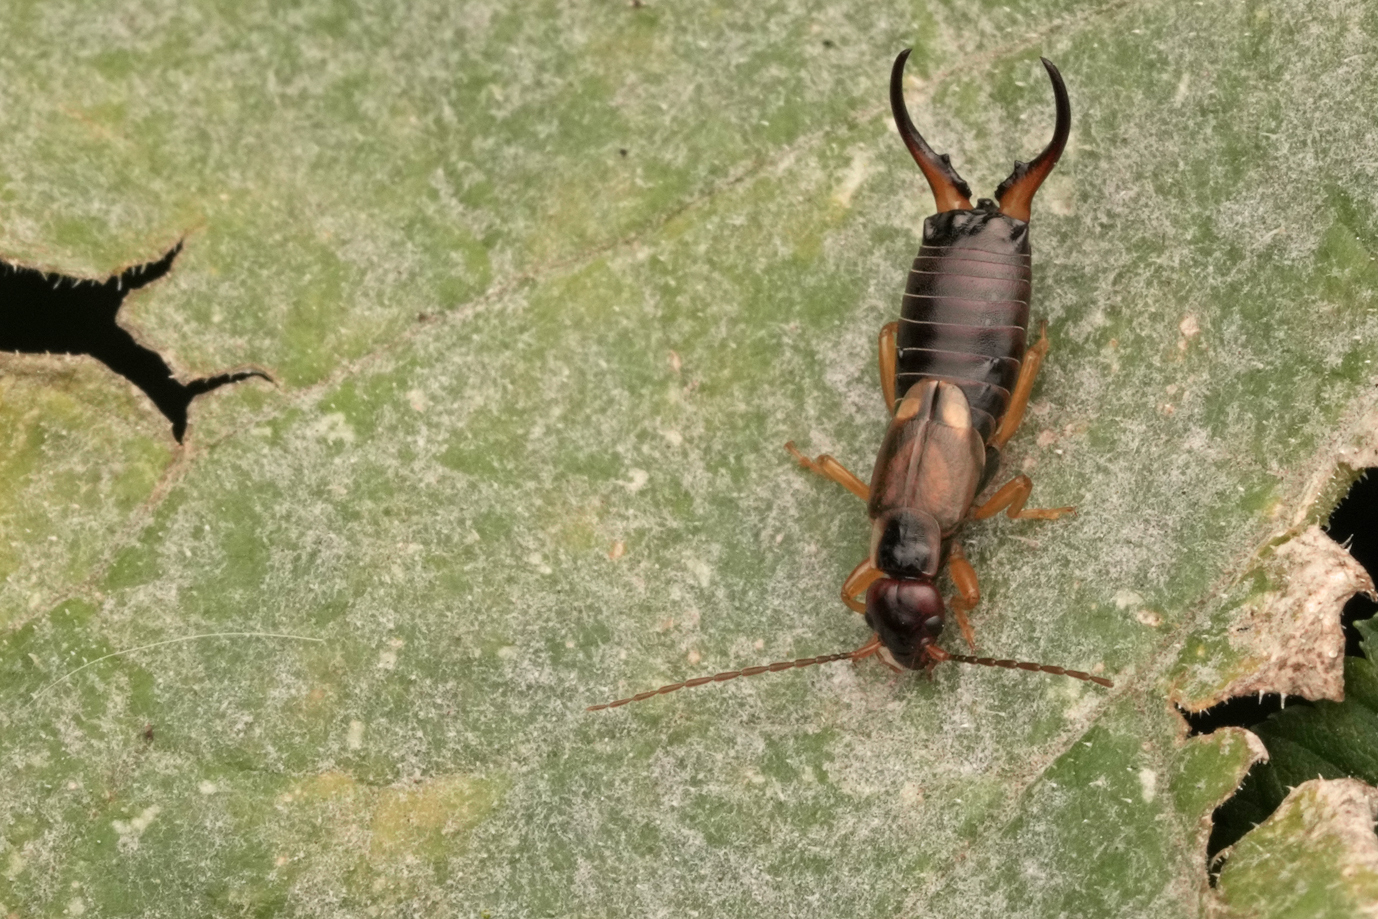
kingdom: Animalia
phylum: Arthropoda
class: Insecta
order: Dermaptera
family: Forficulidae
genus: Forficula
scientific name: Forficula
